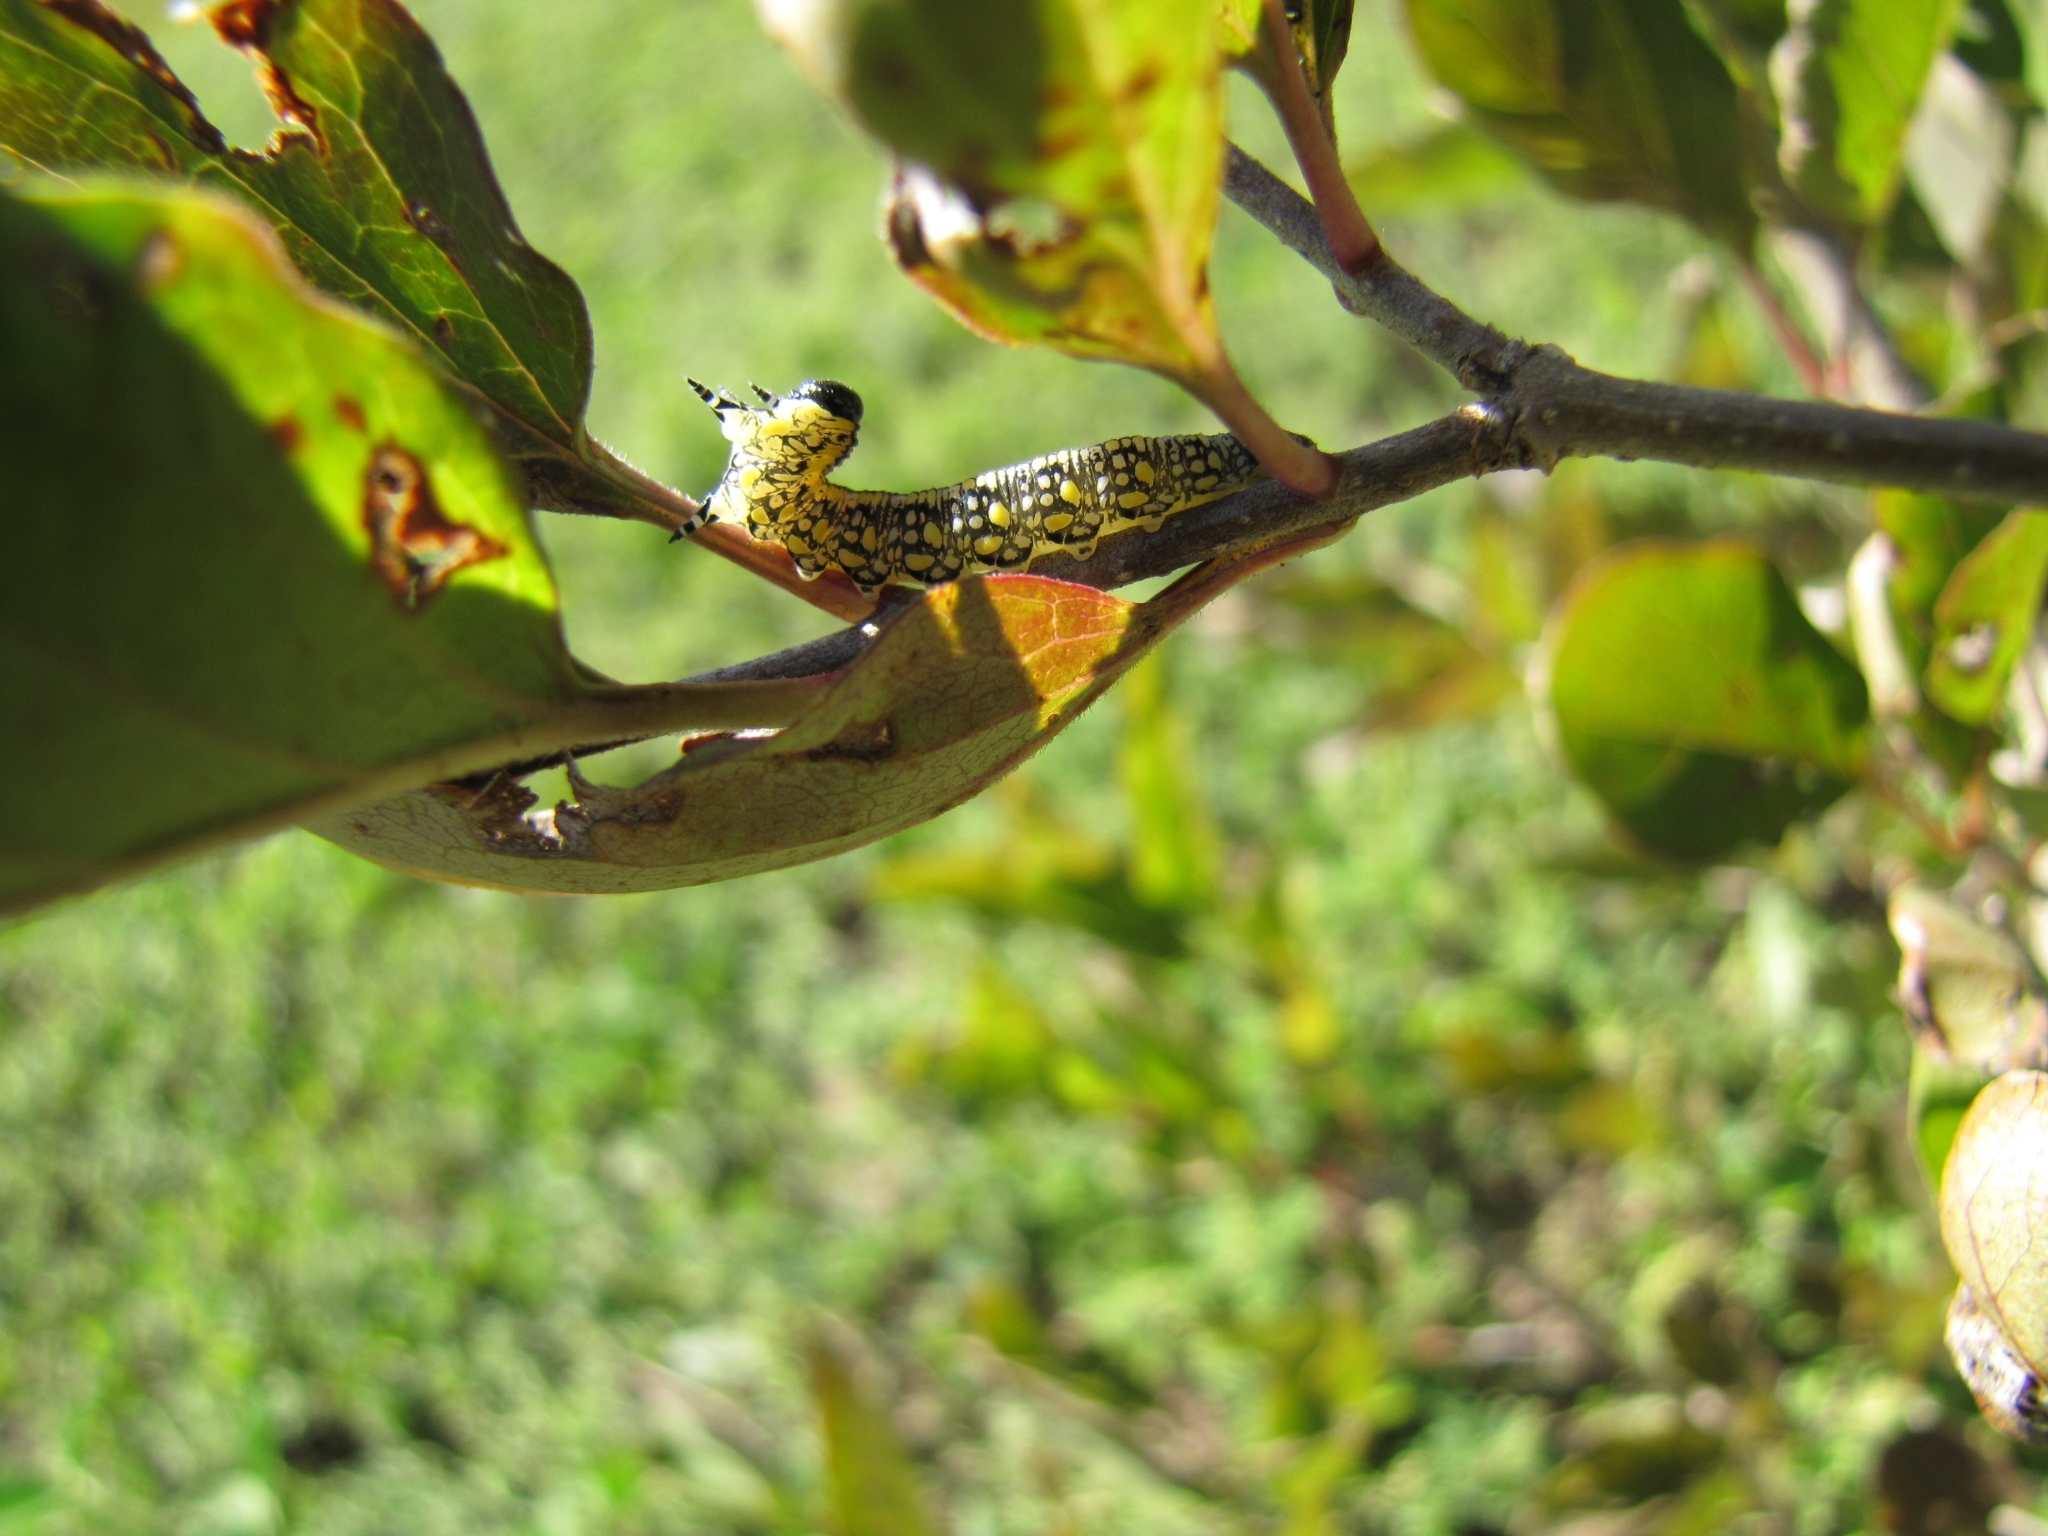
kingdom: Animalia
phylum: Arthropoda
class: Insecta
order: Hymenoptera
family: Diprionidae
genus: Diprion
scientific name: Diprion similis
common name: Pine sawfly
